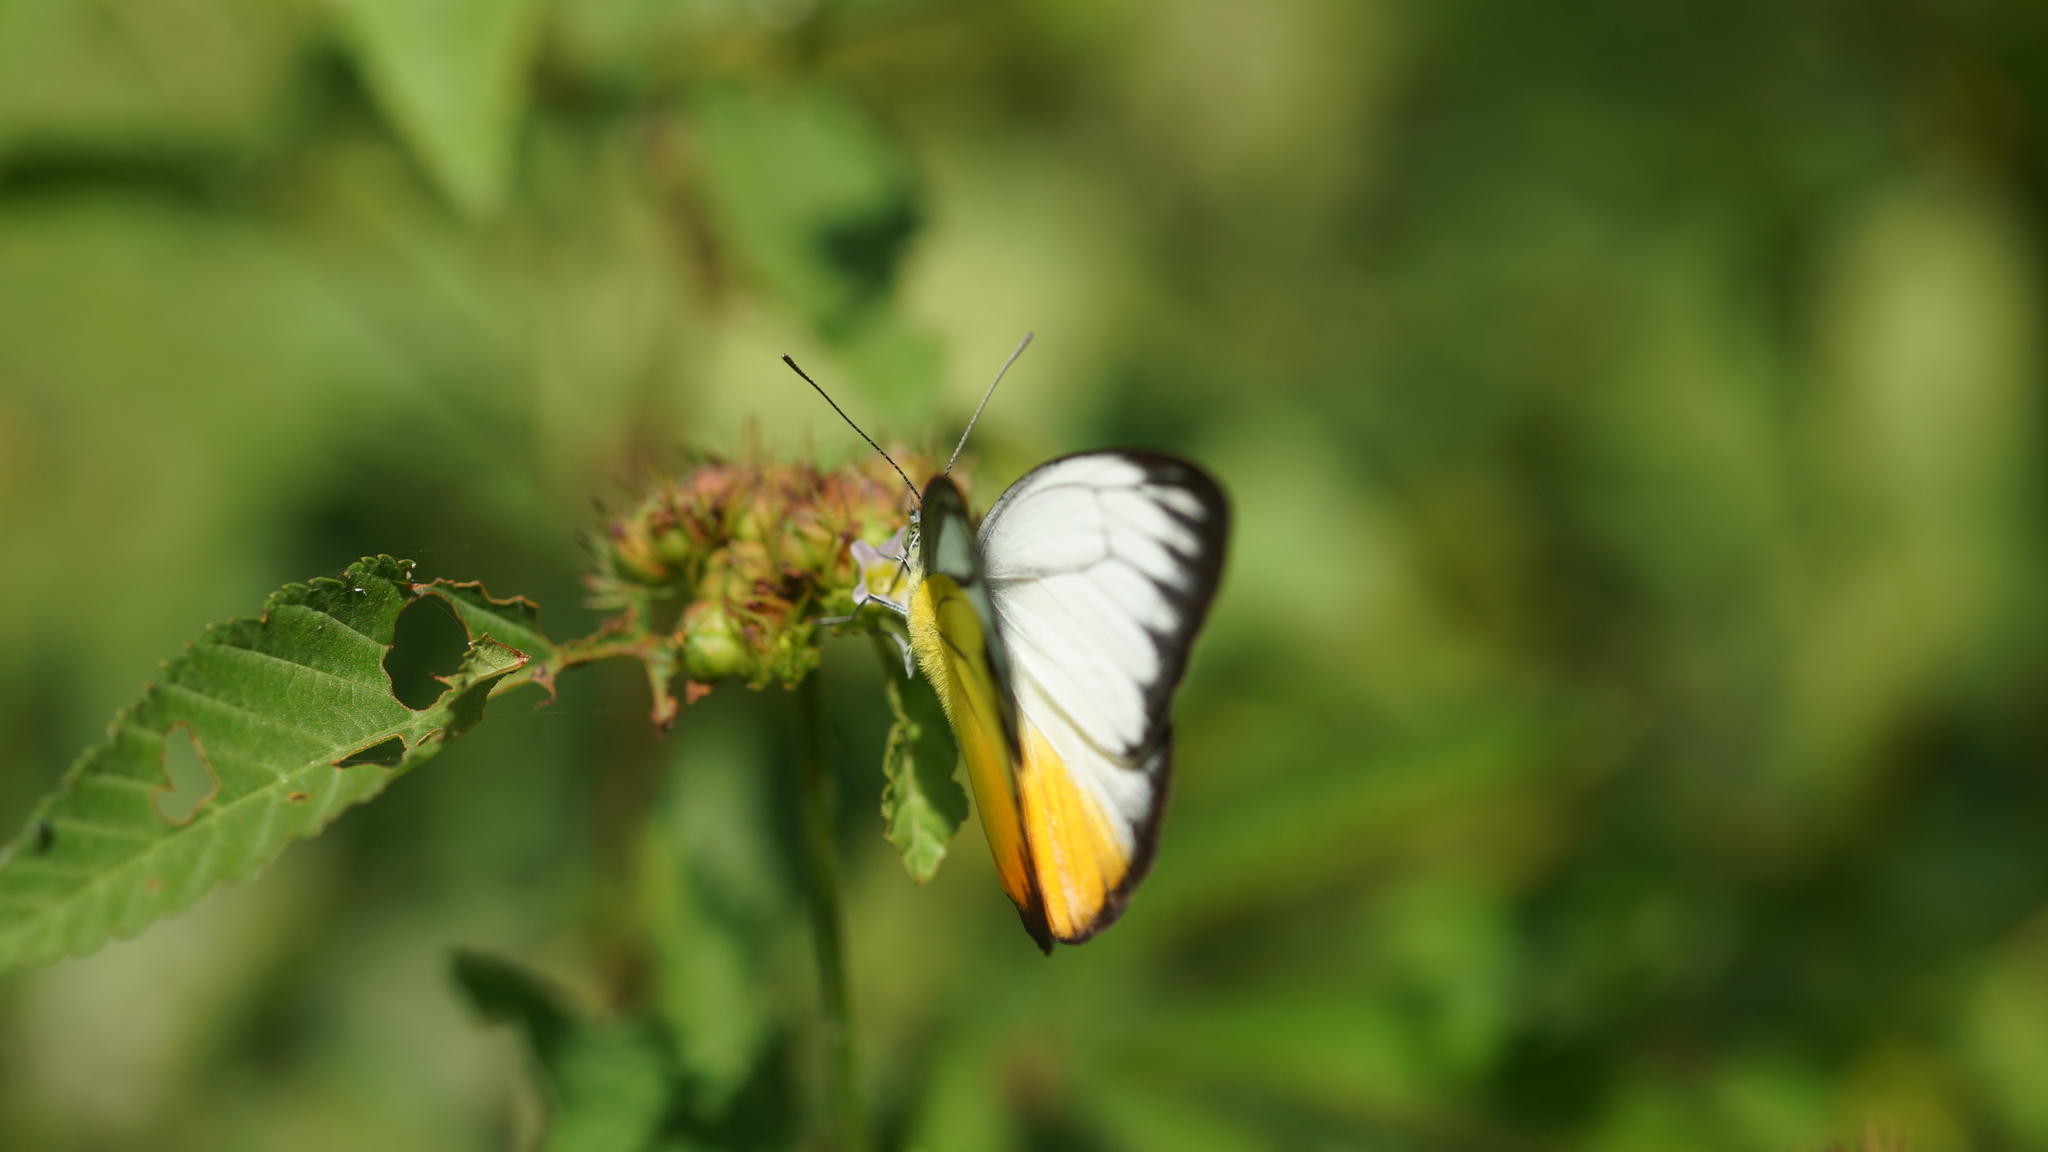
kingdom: Animalia
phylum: Arthropoda
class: Insecta
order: Lepidoptera
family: Pieridae
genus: Cepora
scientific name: Cepora iudith
